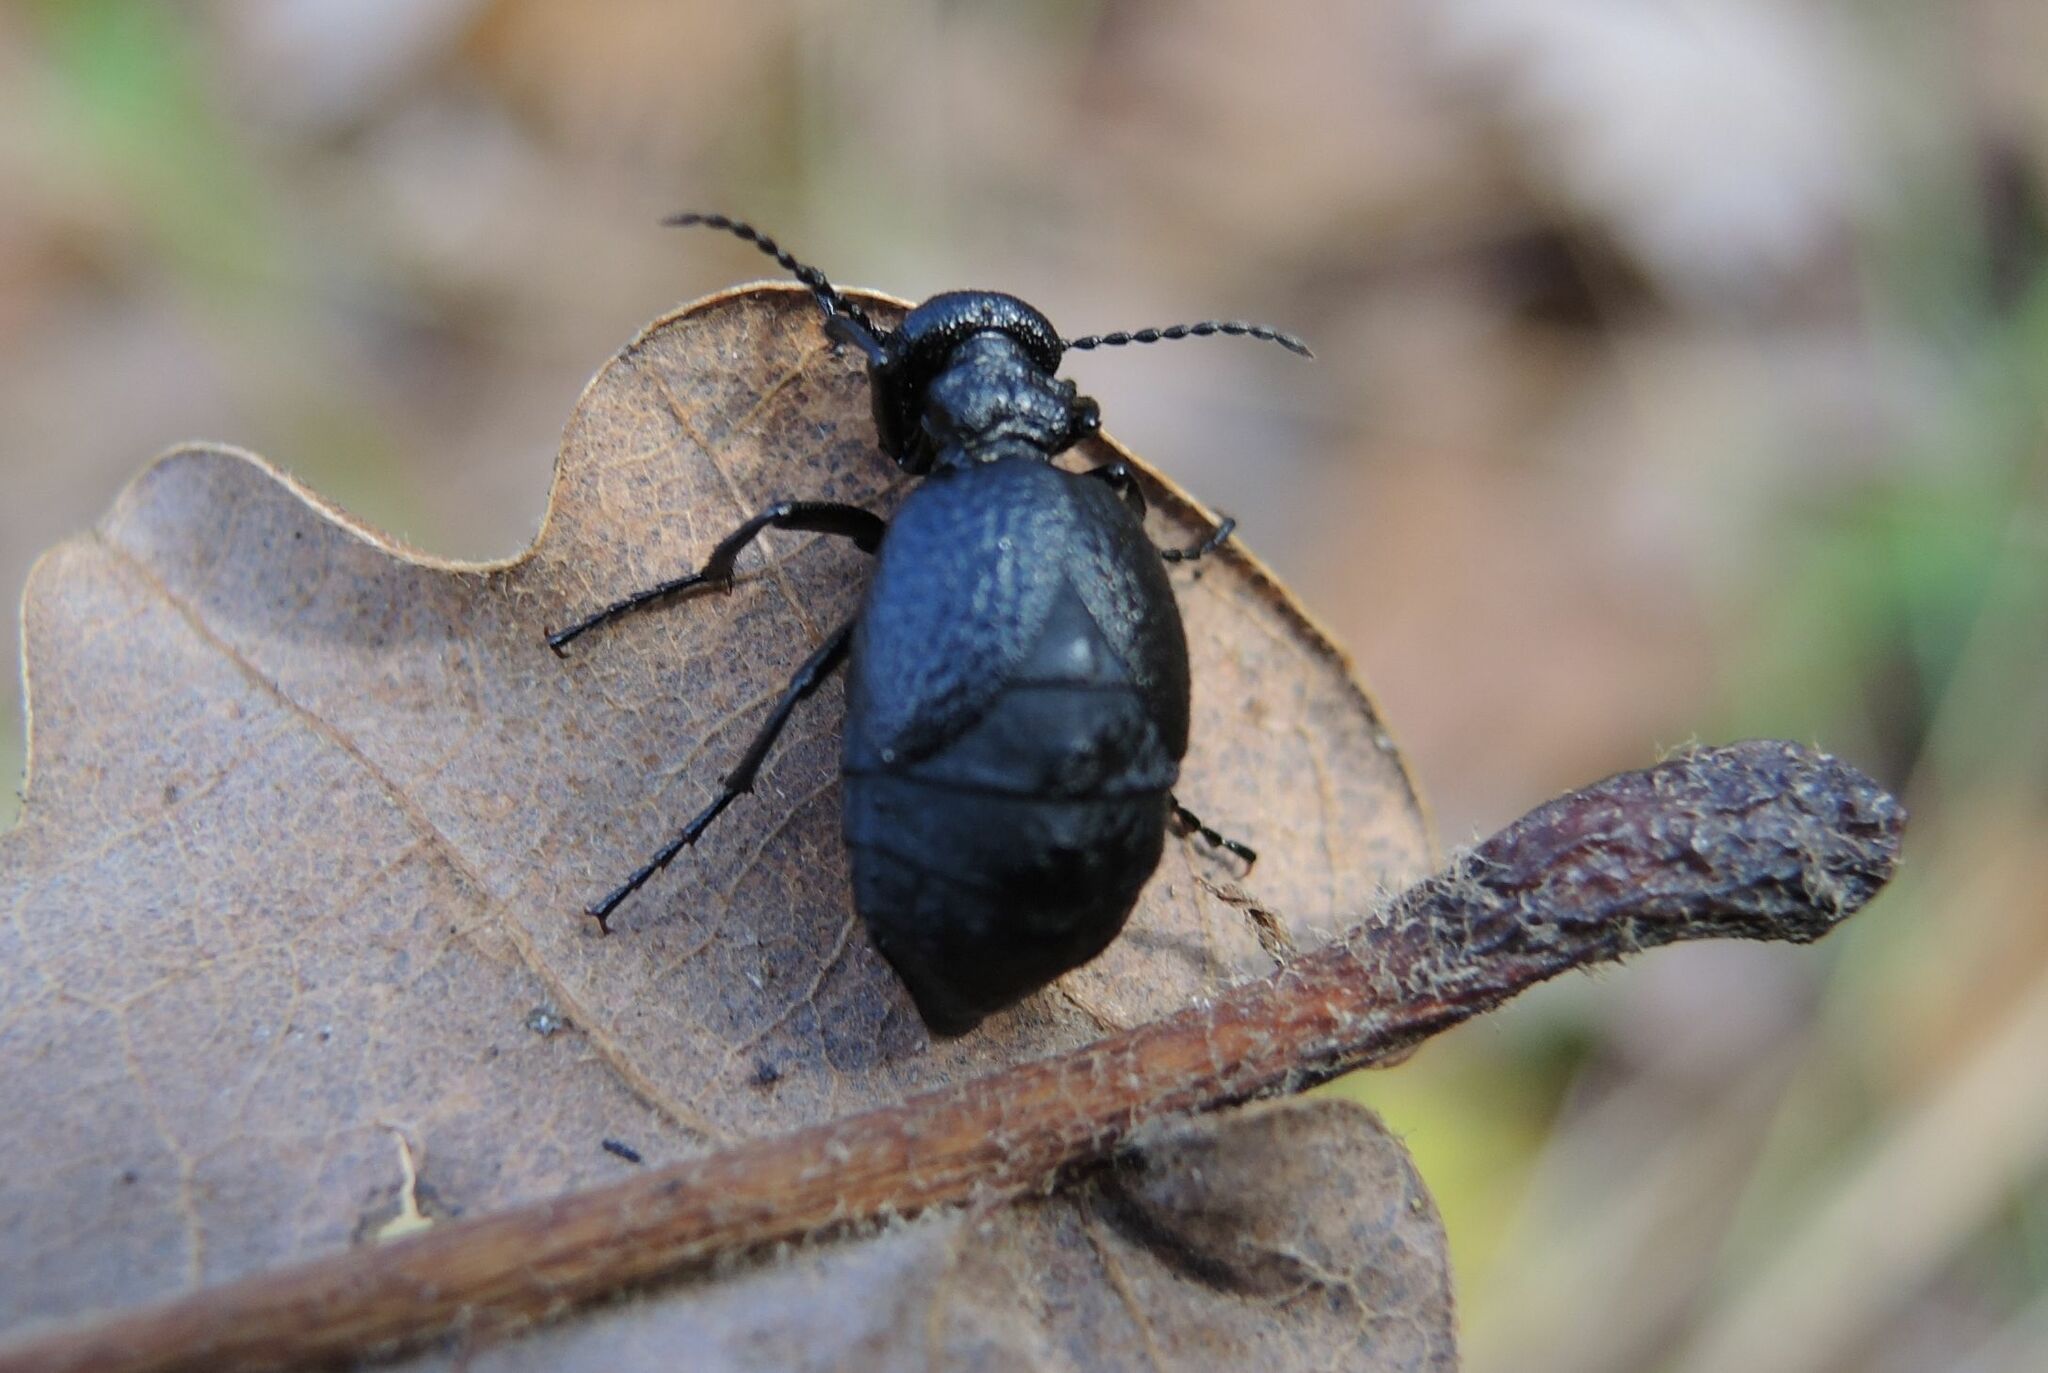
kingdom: Animalia
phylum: Arthropoda
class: Insecta
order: Coleoptera
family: Meloidae
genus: Meloe
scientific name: Meloe rugosus
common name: Rugged oil-beetle
